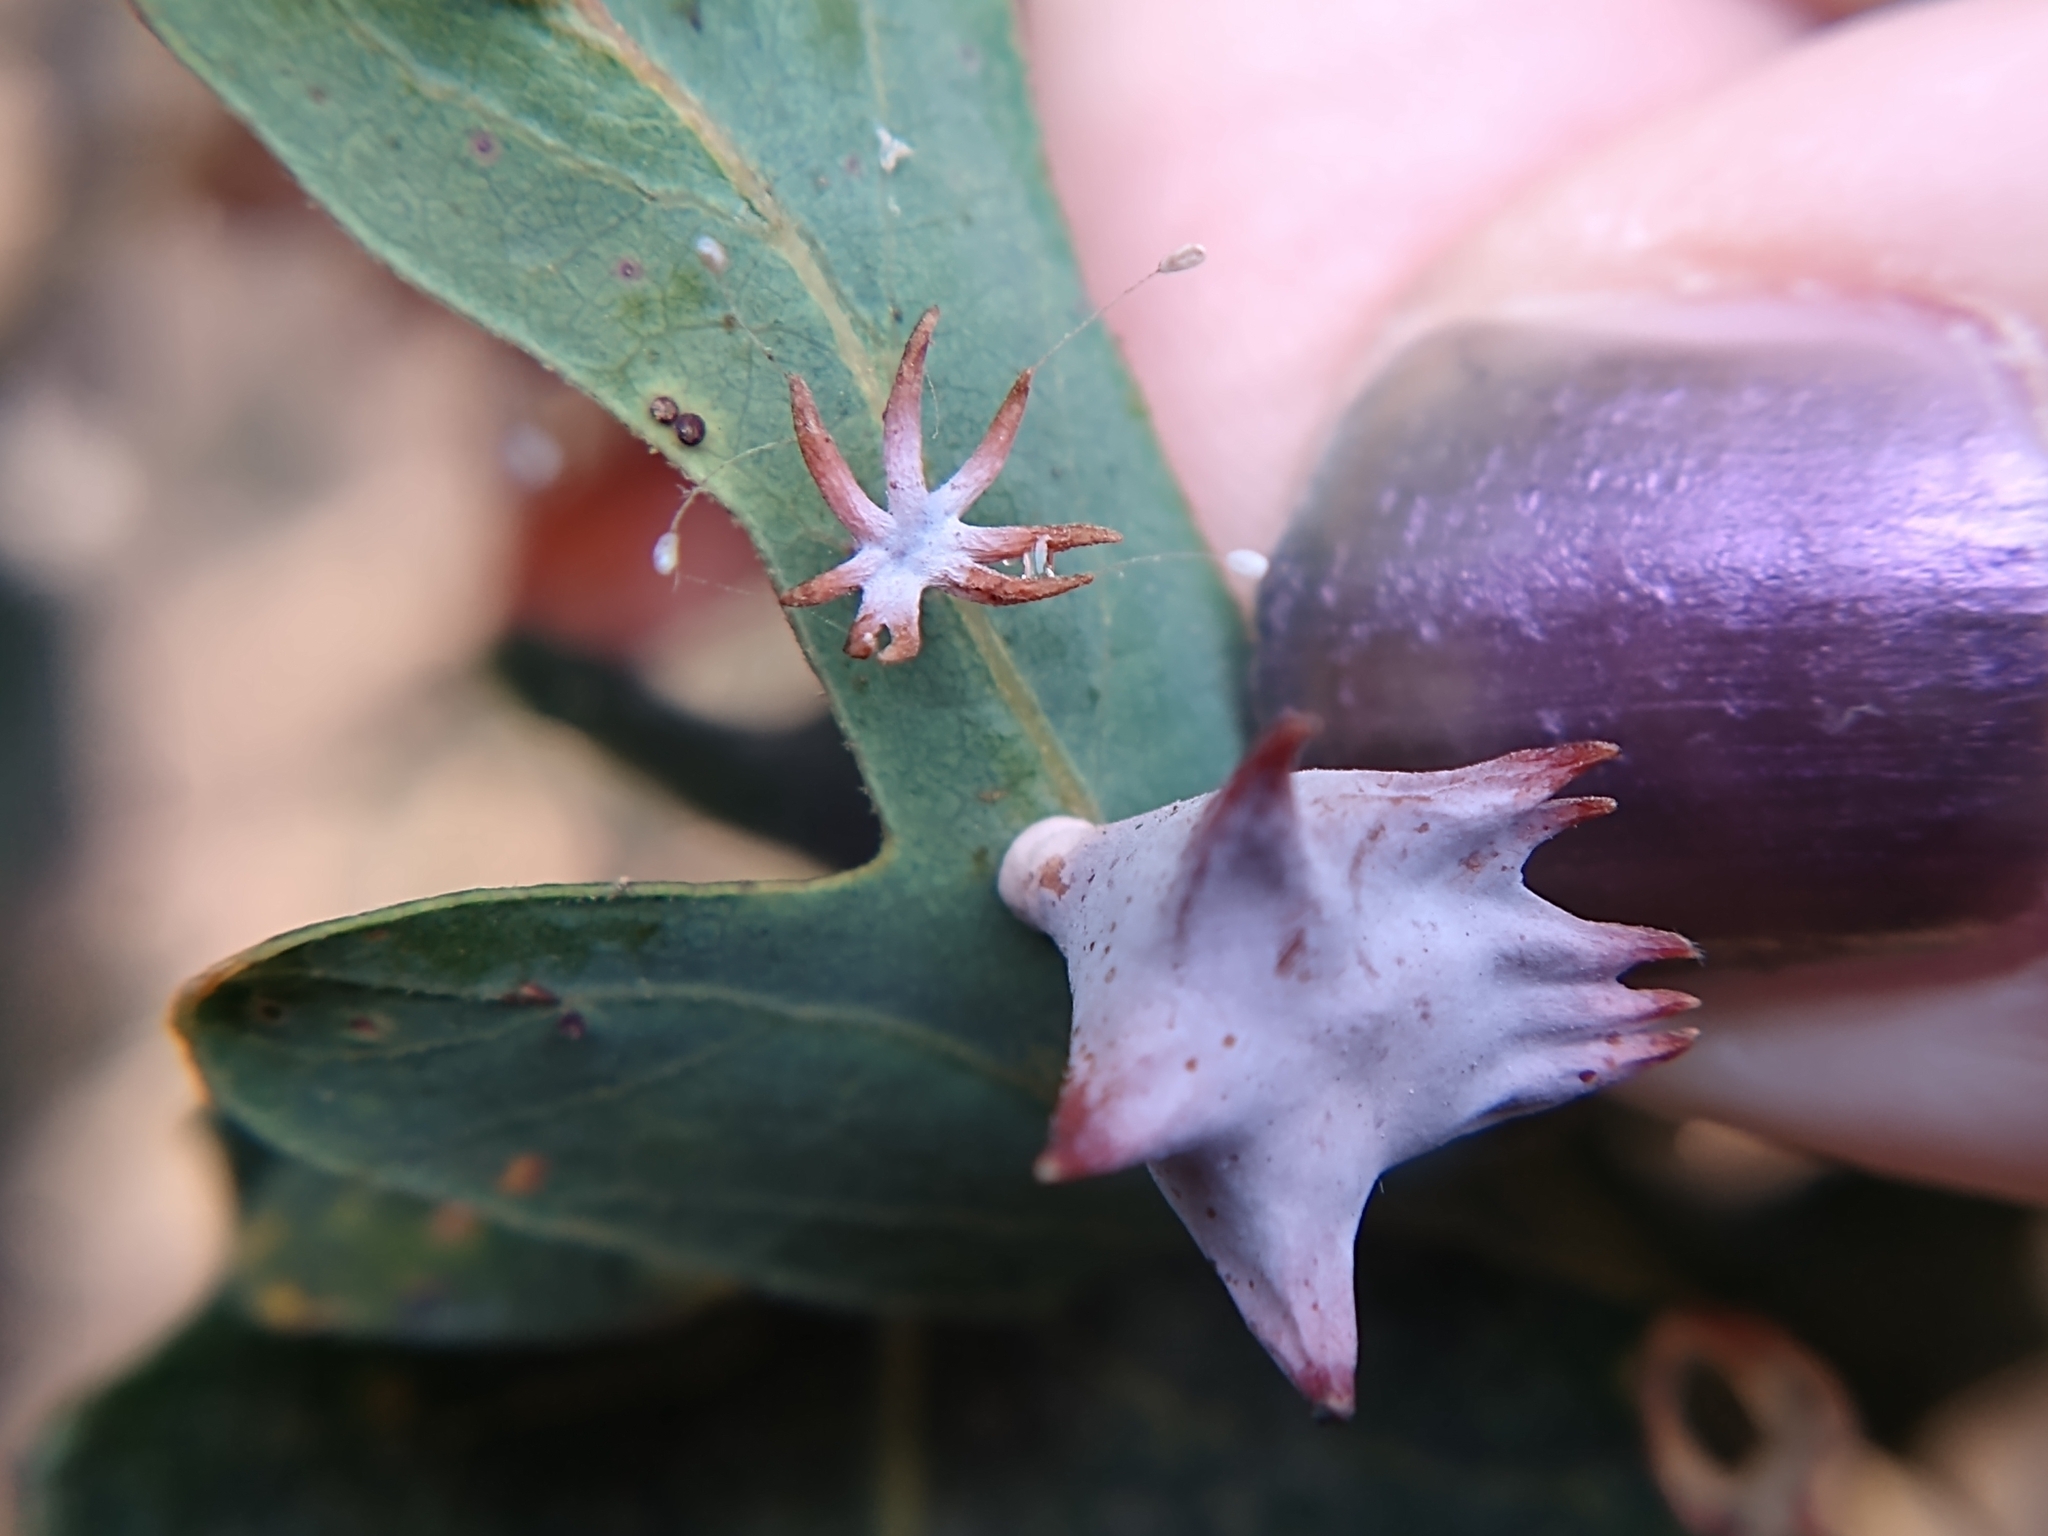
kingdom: Animalia
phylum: Arthropoda
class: Insecta
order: Hymenoptera
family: Cynipidae
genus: Cynips
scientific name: Cynips douglasi
